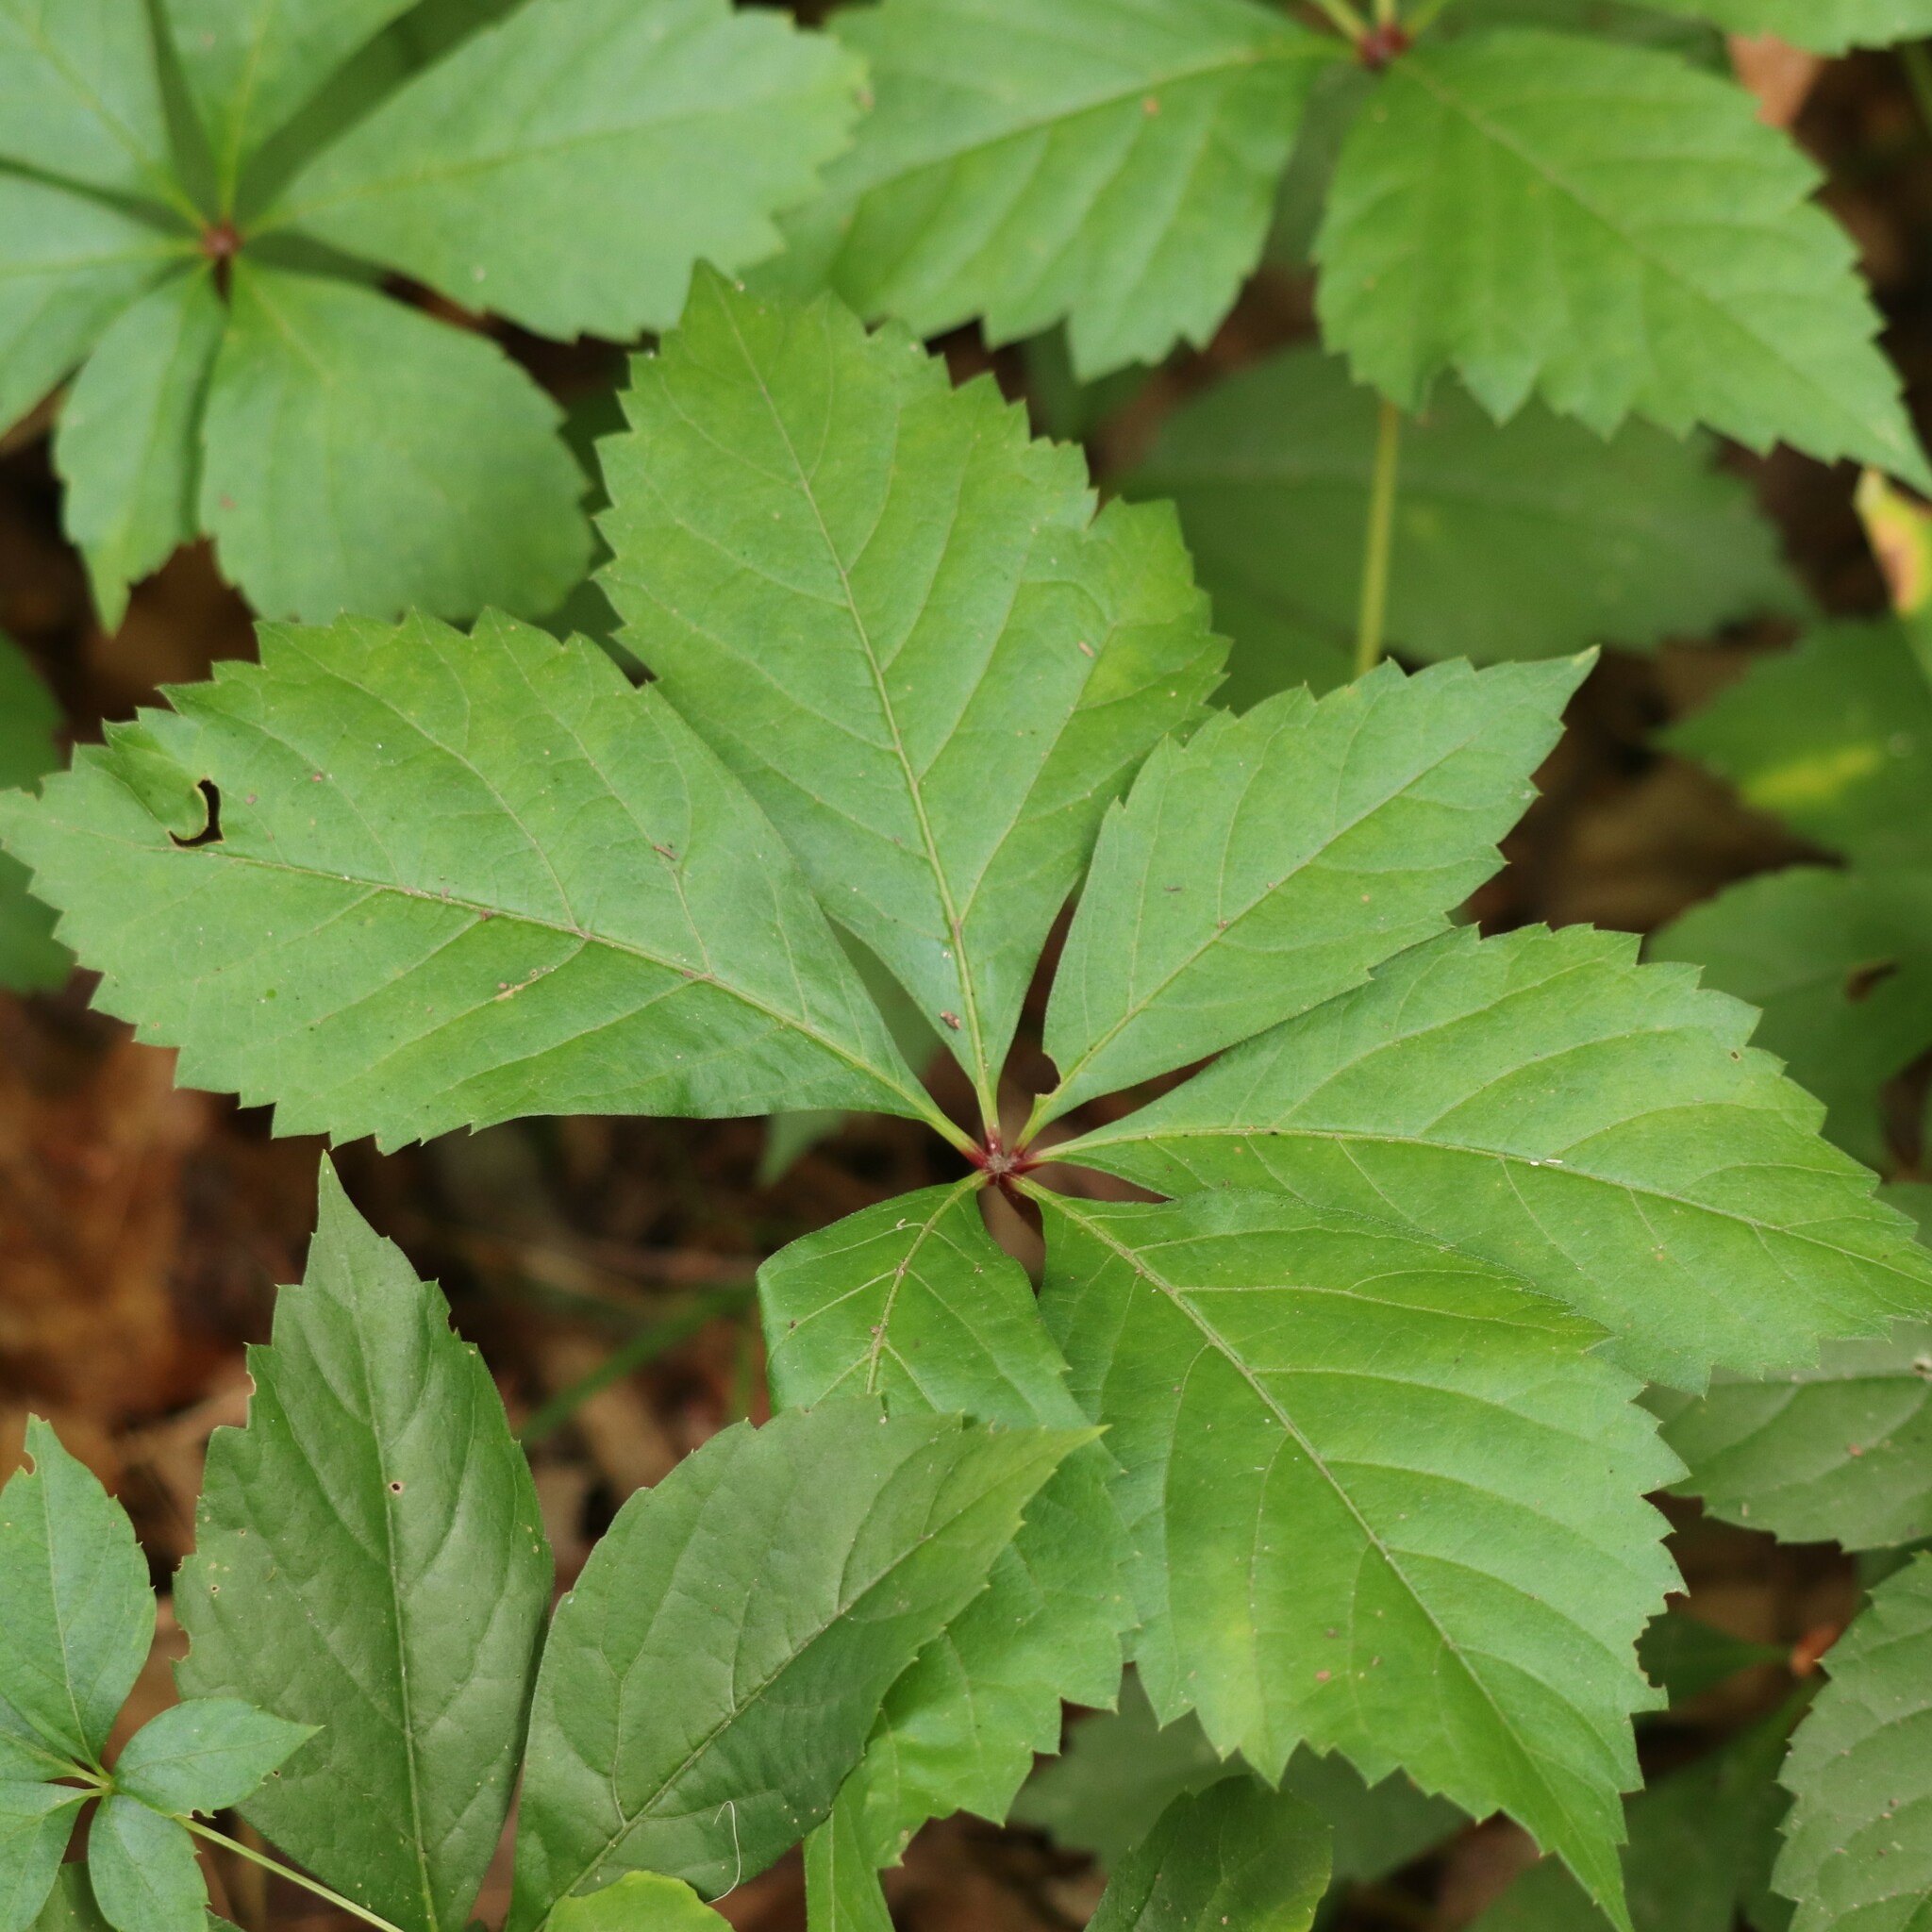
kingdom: Plantae
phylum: Tracheophyta
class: Magnoliopsida
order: Vitales
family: Vitaceae
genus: Parthenocissus
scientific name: Parthenocissus quinquefolia
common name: Virginia-creeper
